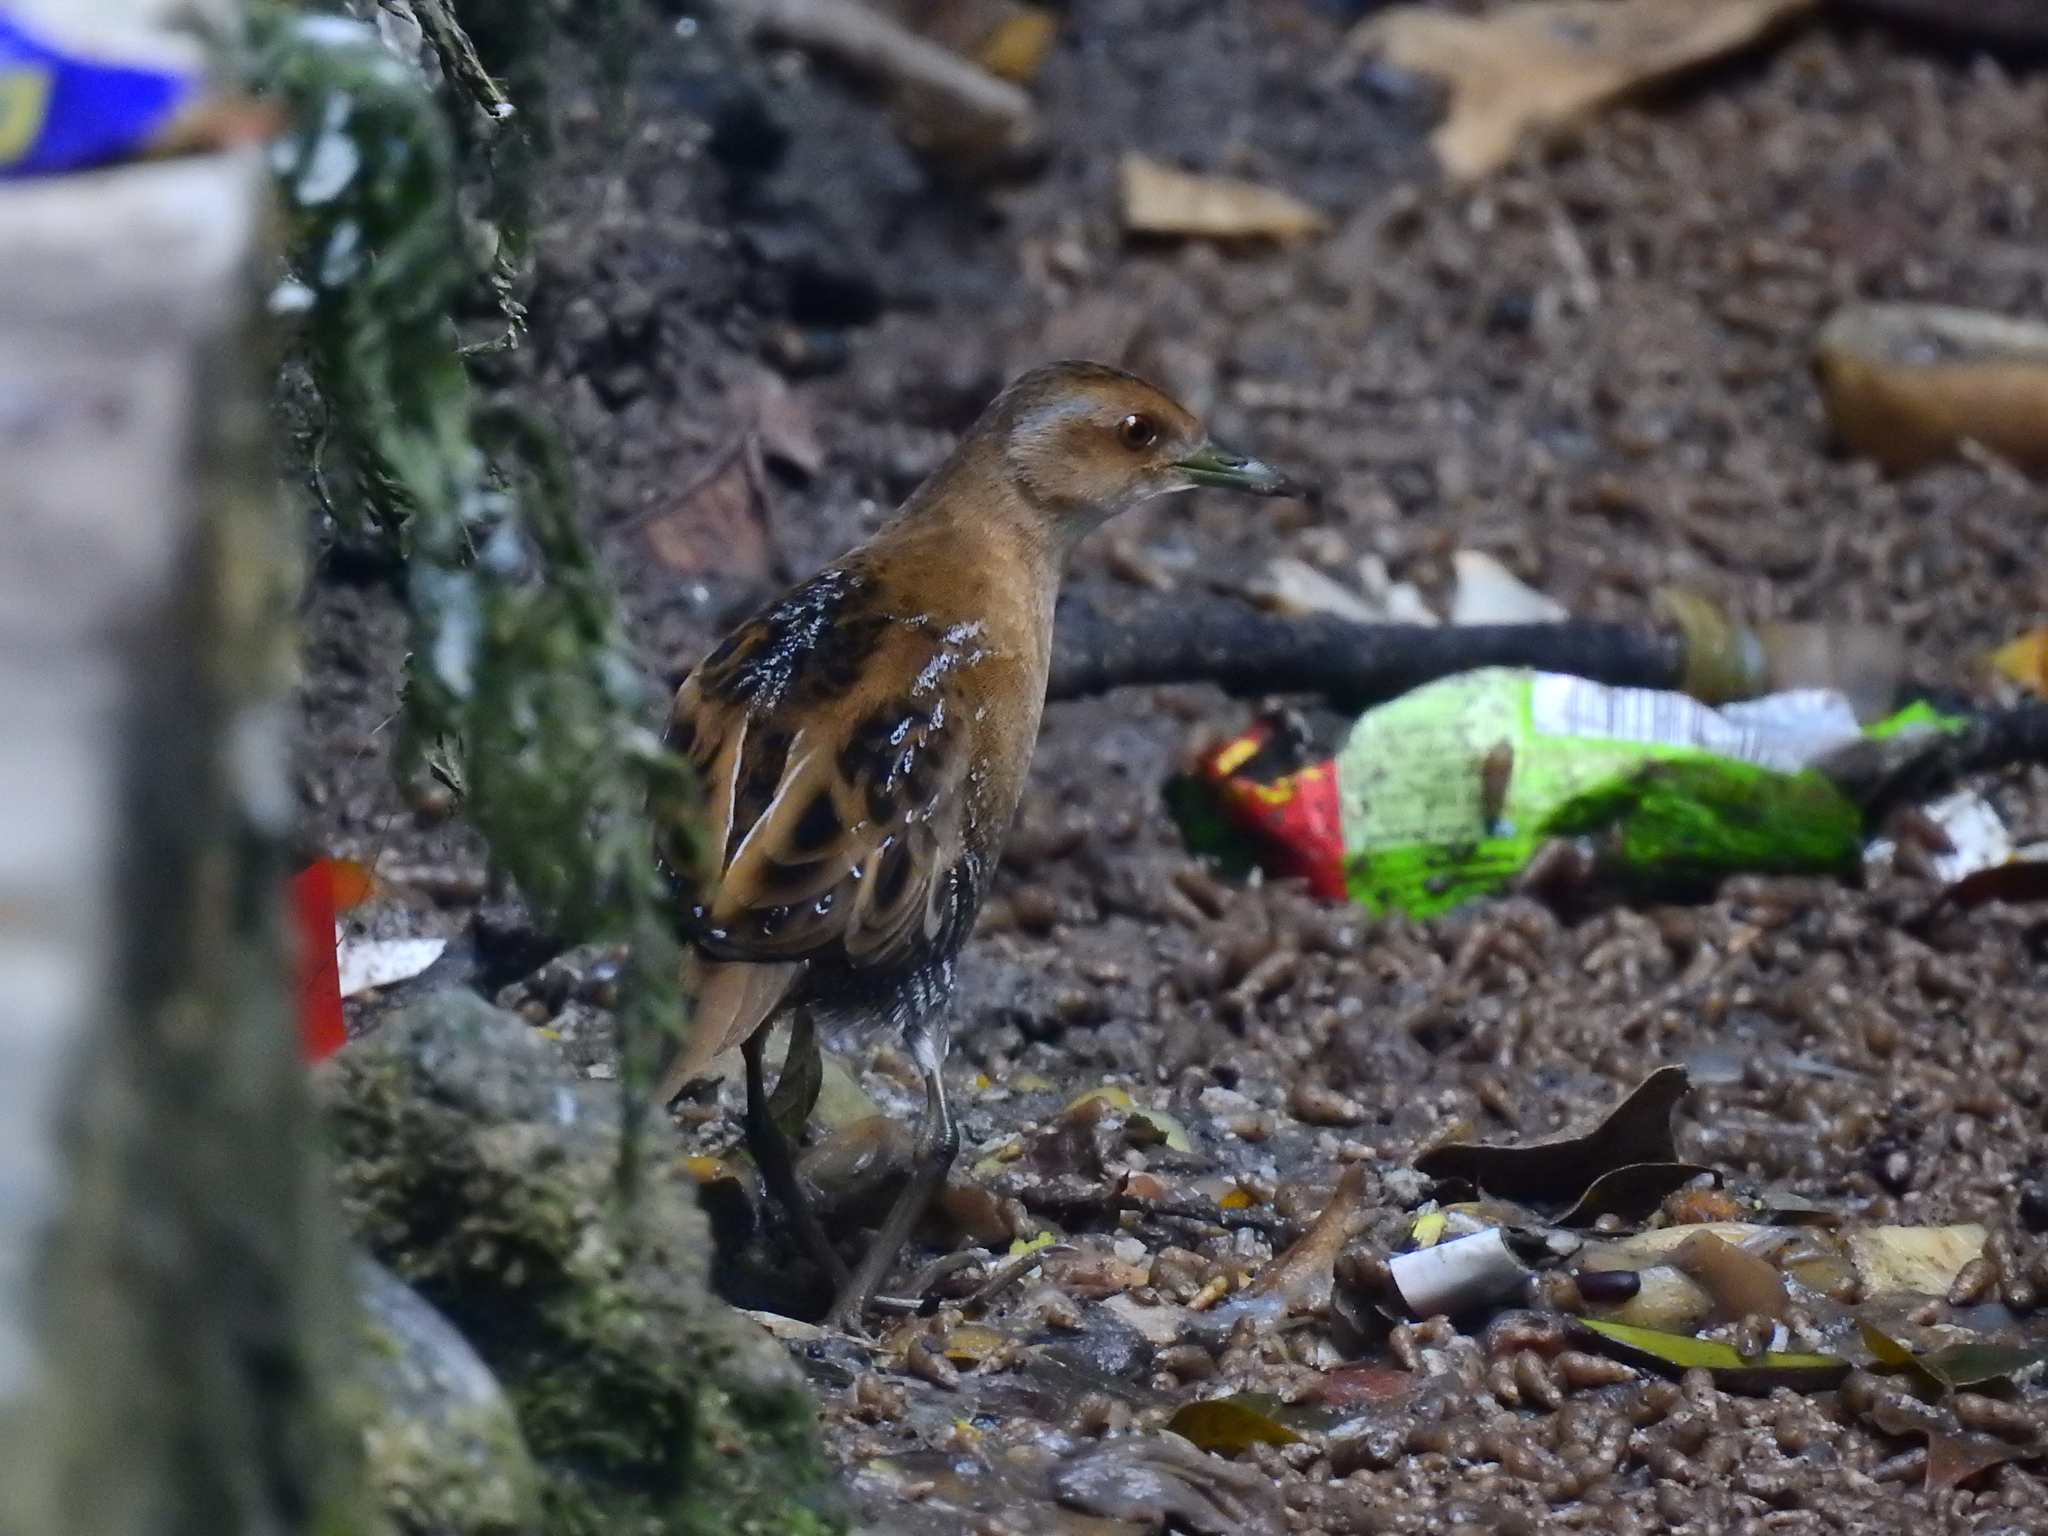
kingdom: Animalia
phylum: Chordata
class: Aves
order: Gruiformes
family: Rallidae
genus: Porzana
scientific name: Porzana pusilla
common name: Baillon's crake
